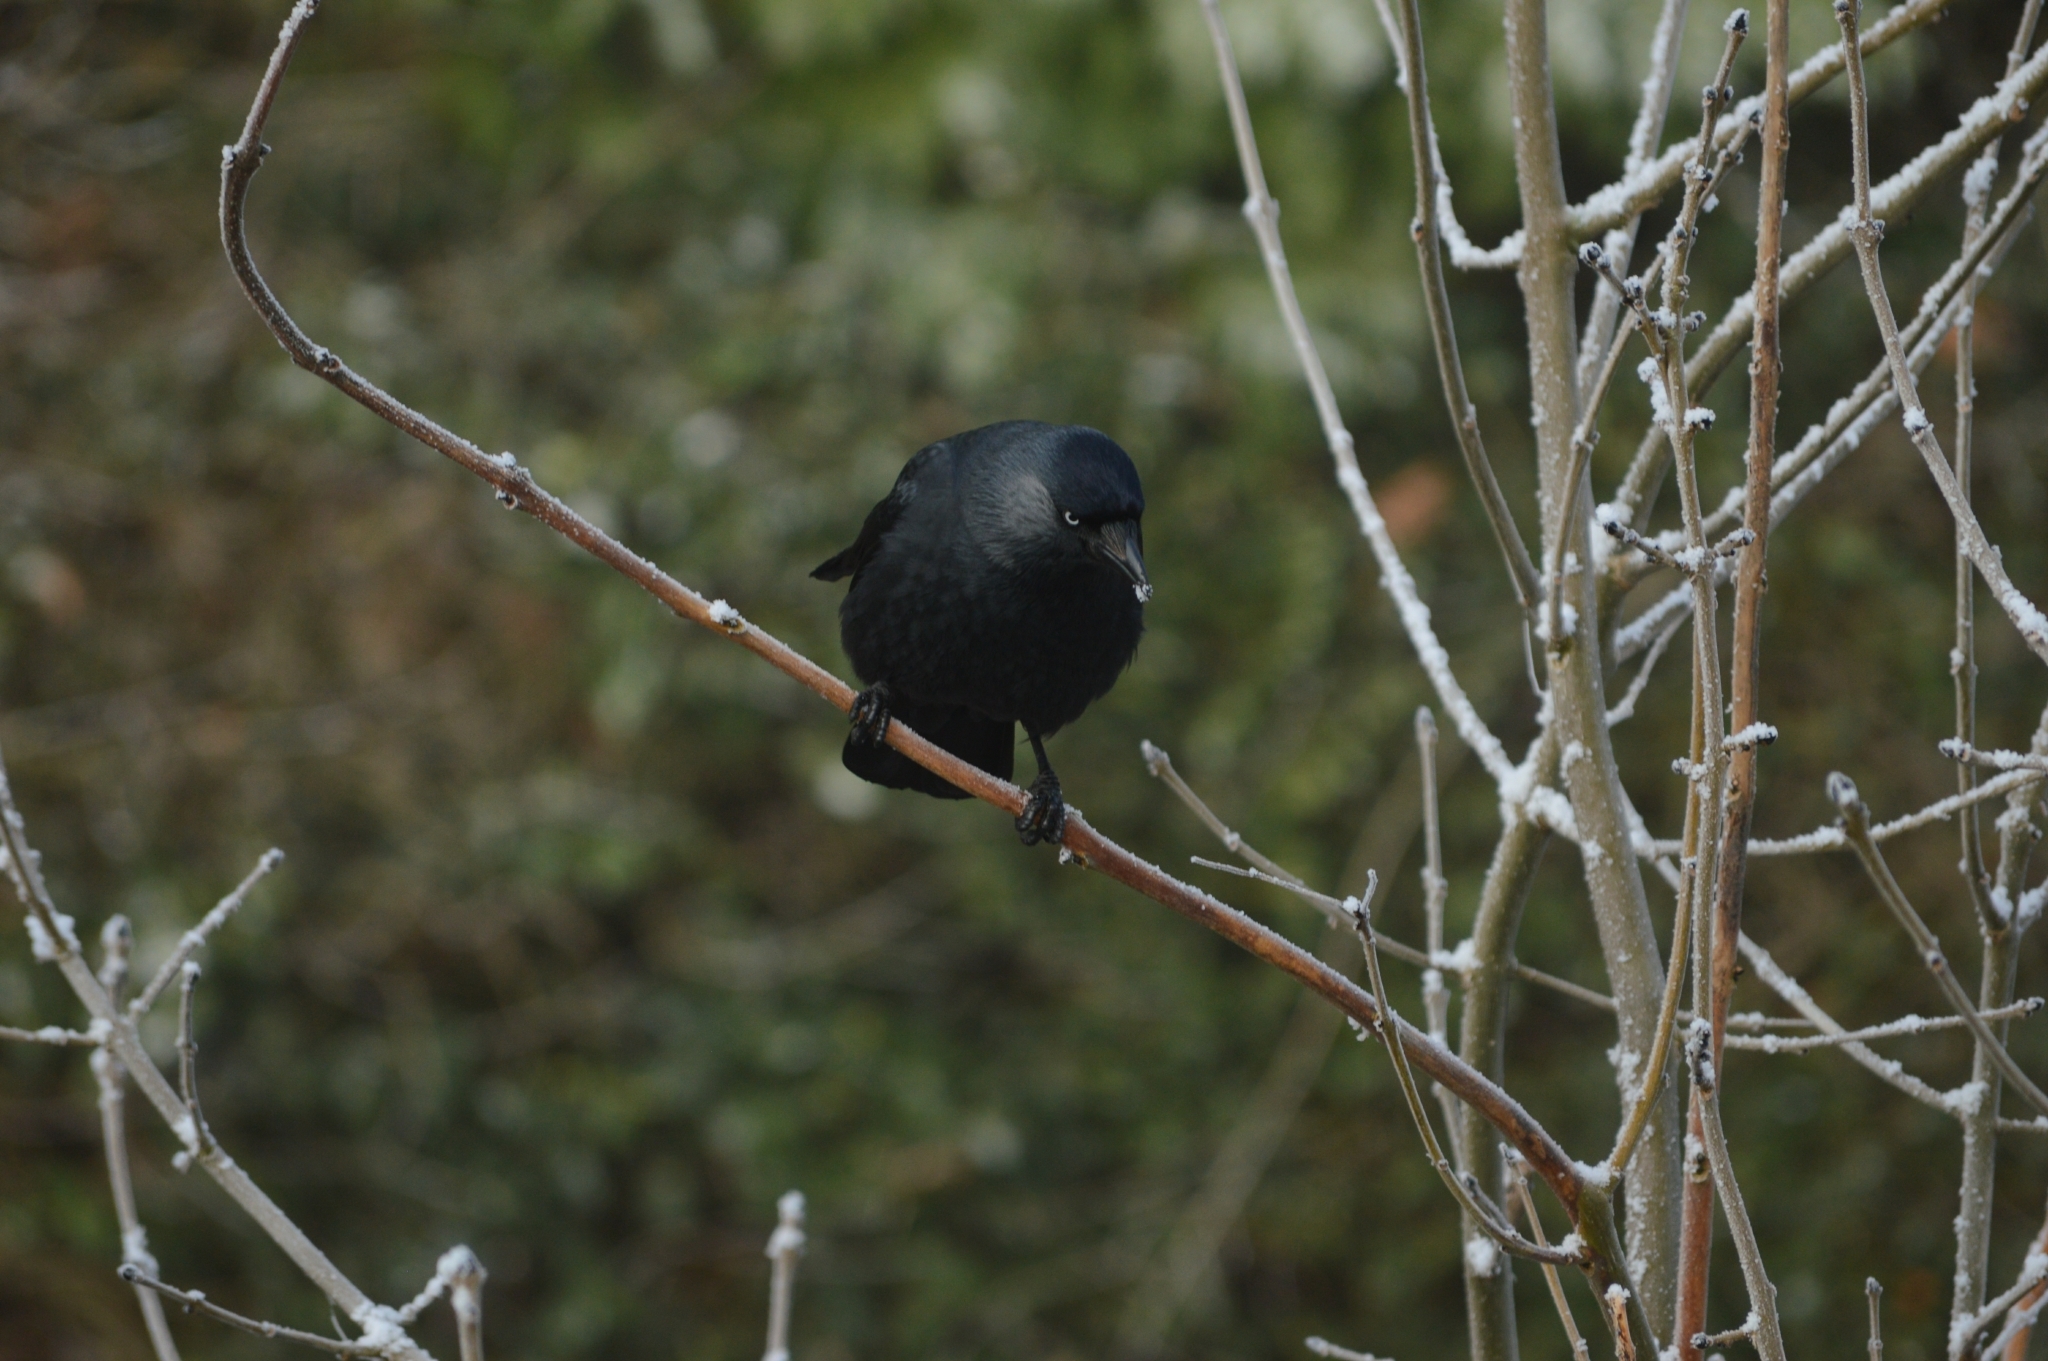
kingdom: Animalia
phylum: Chordata
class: Aves
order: Passeriformes
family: Corvidae
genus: Coloeus
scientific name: Coloeus monedula
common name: Western jackdaw
